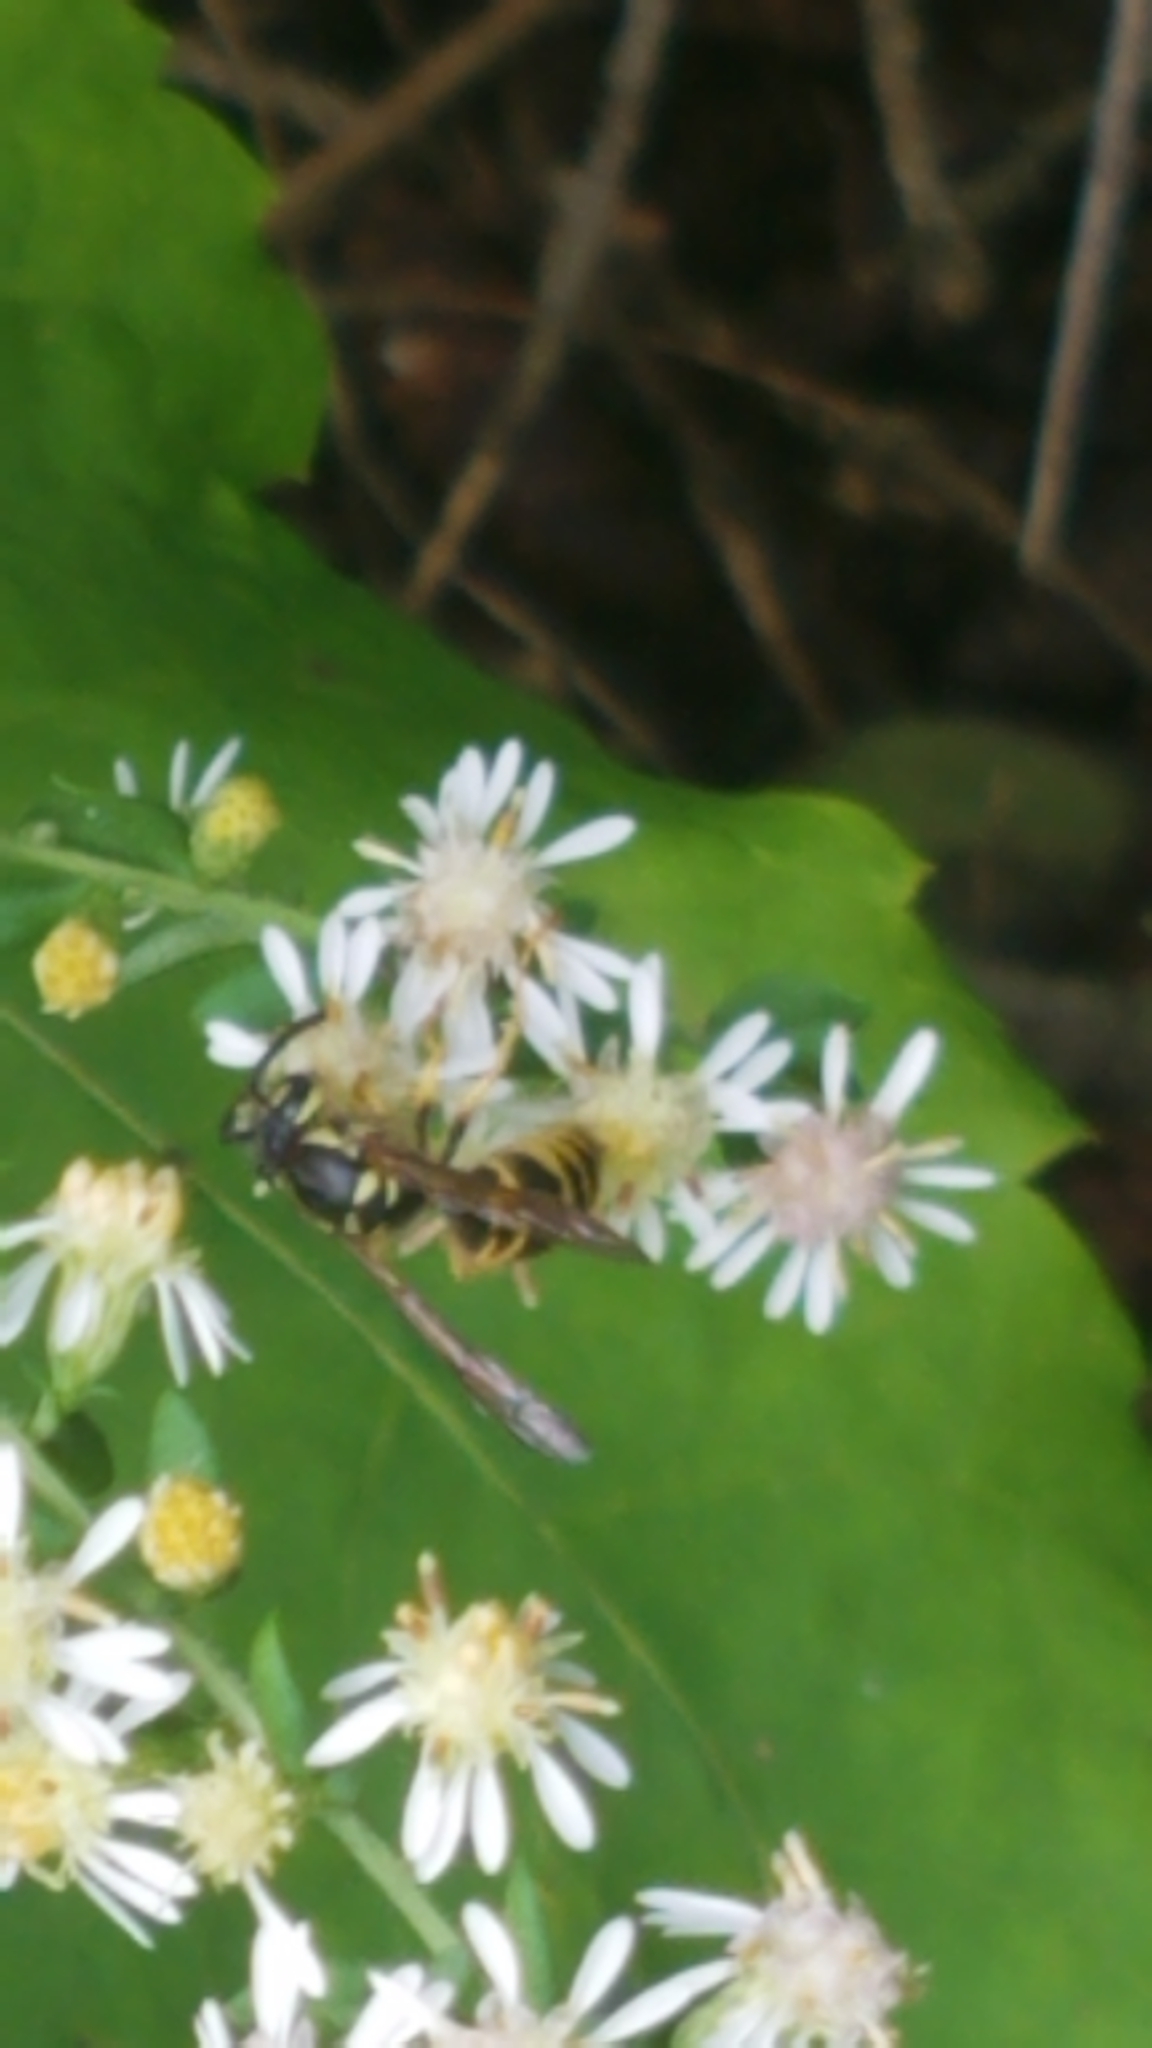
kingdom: Animalia
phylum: Arthropoda
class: Insecta
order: Hymenoptera
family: Vespidae
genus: Vespula
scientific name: Vespula maculifrons
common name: Eastern yellowjacket
